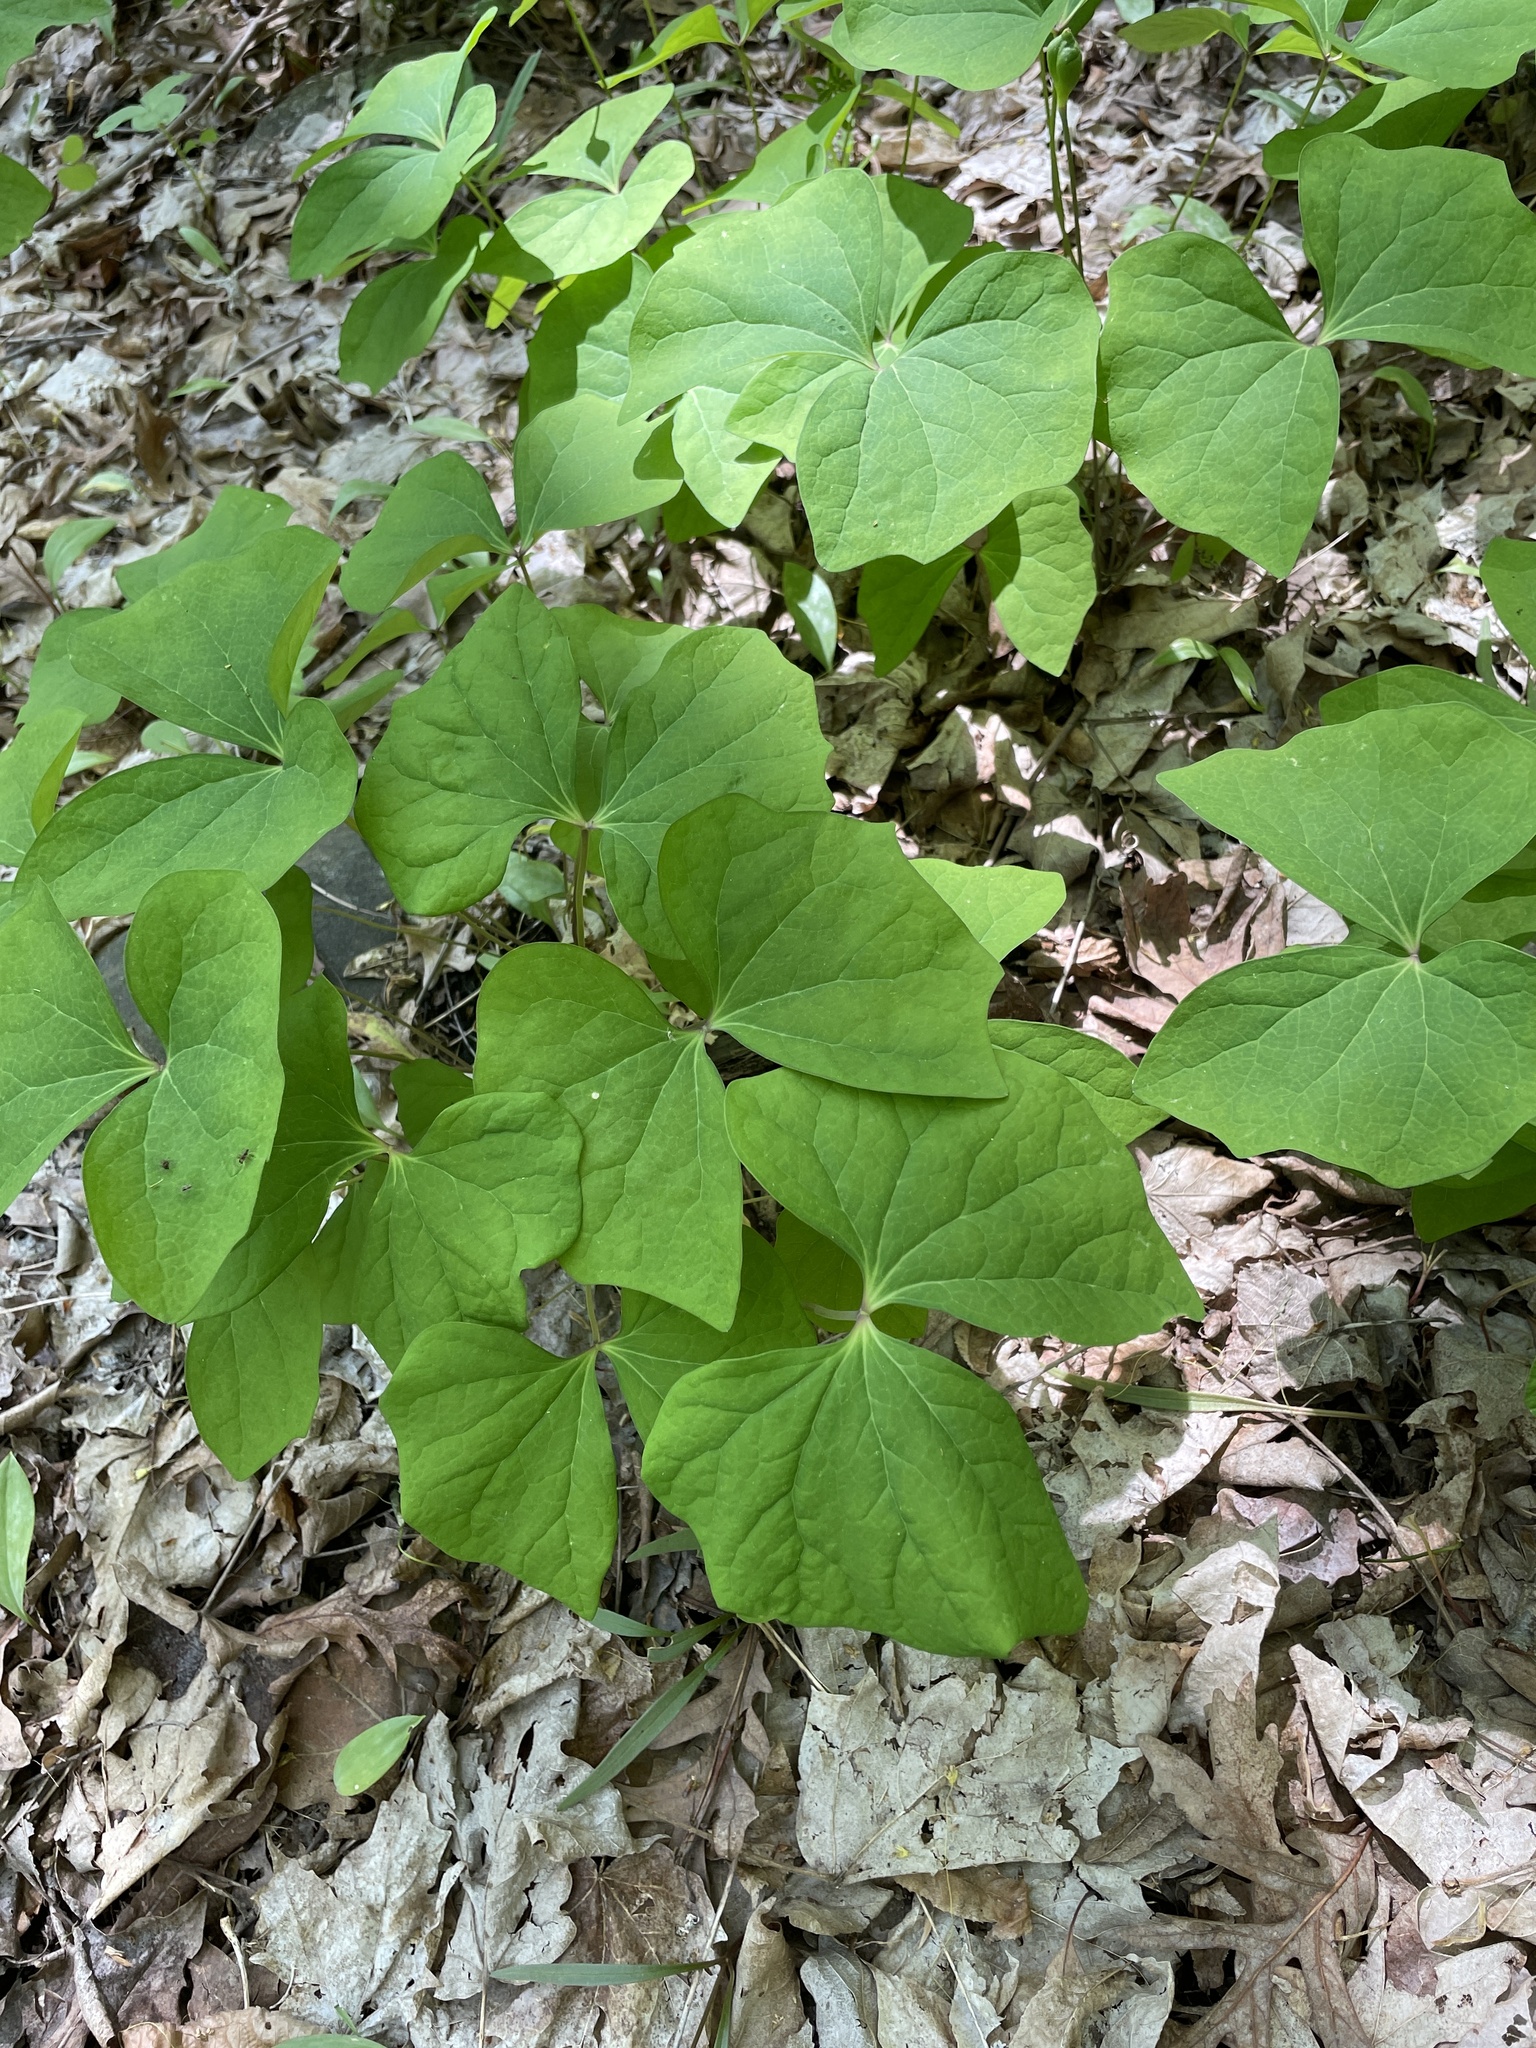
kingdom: Plantae
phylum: Tracheophyta
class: Magnoliopsida
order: Ranunculales
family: Berberidaceae
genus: Jeffersonia
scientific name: Jeffersonia diphylla
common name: Rheumatism-root
